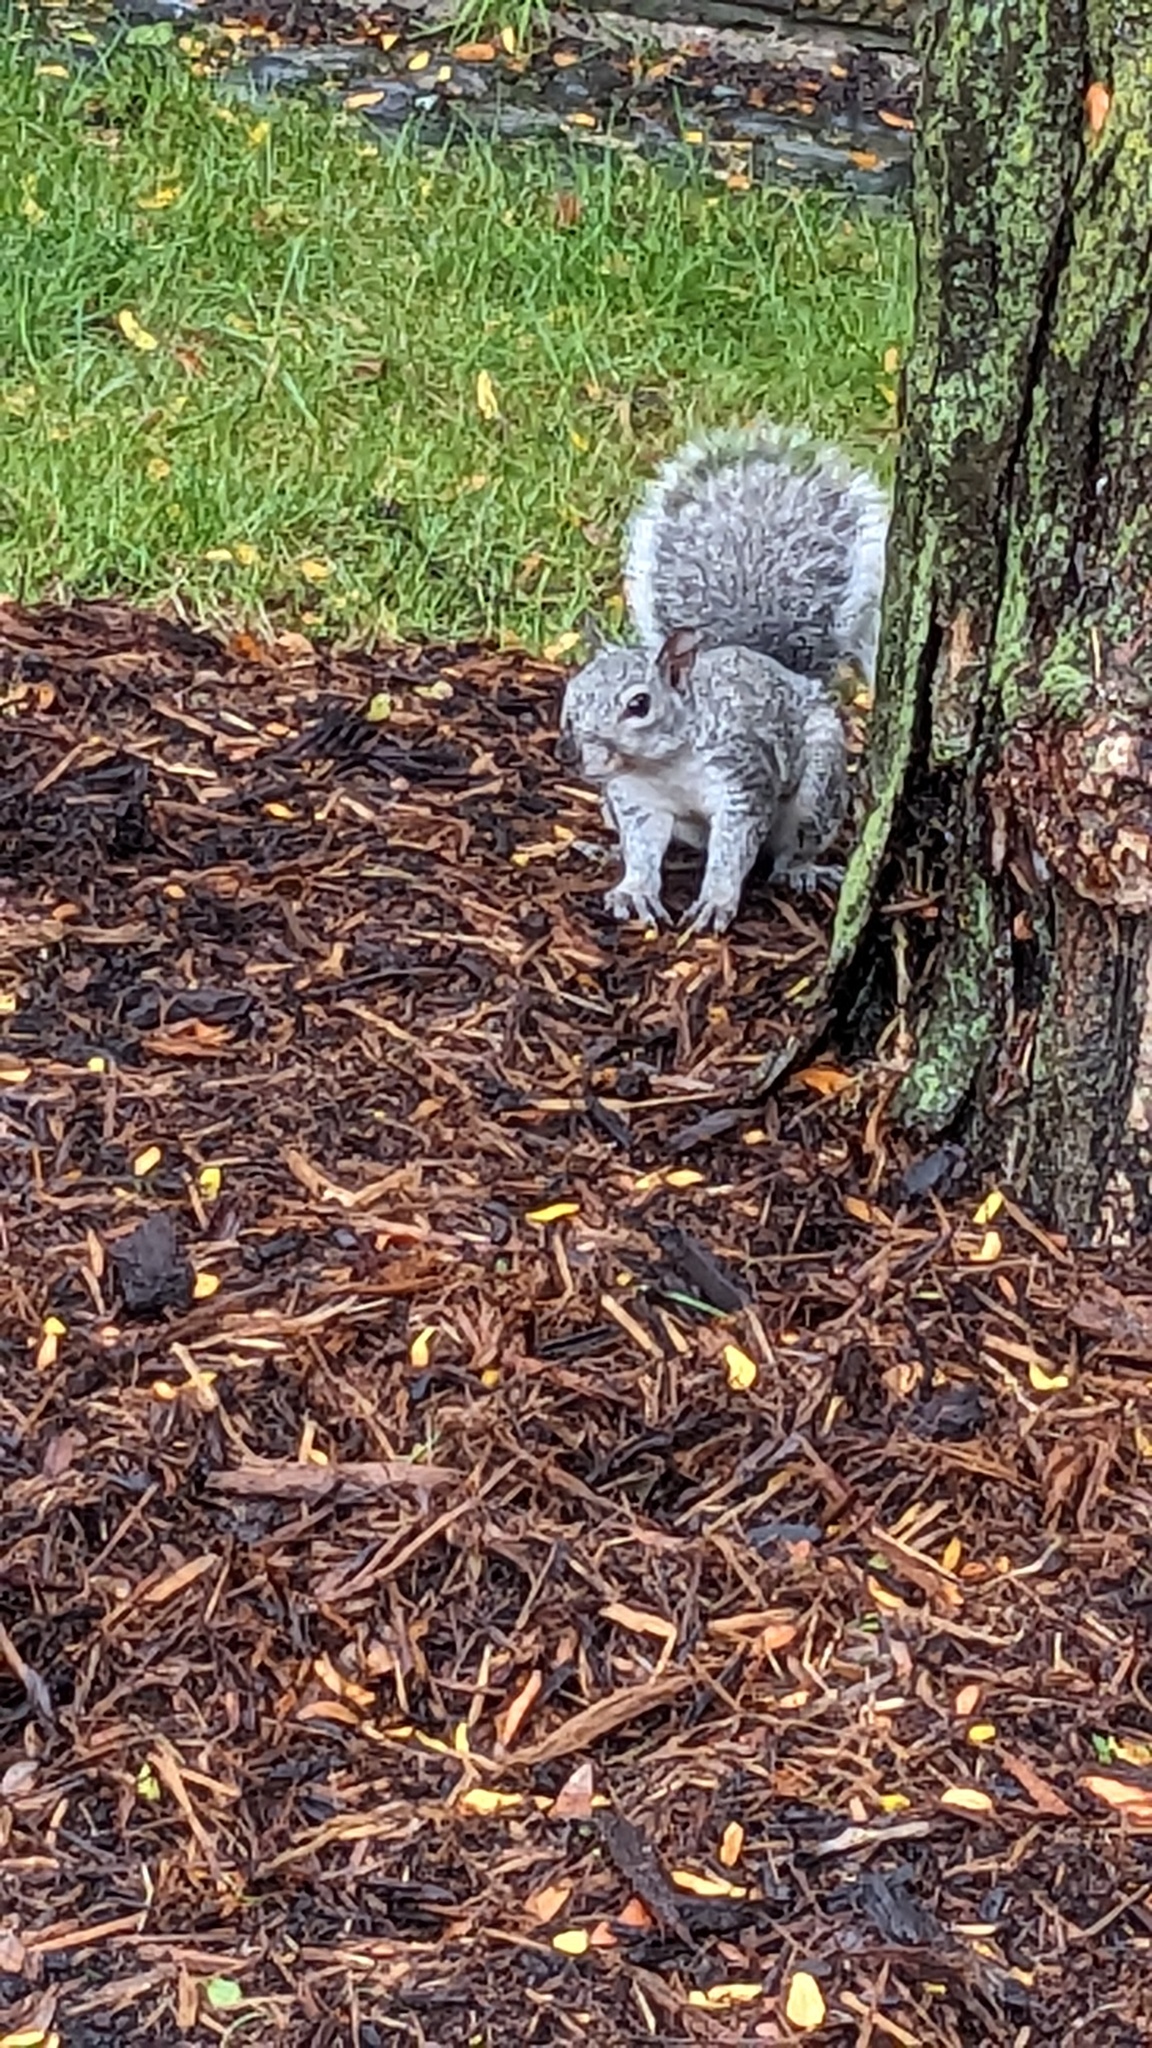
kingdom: Animalia
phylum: Chordata
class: Mammalia
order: Rodentia
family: Sciuridae
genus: Sciurus
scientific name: Sciurus carolinensis
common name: Eastern gray squirrel
